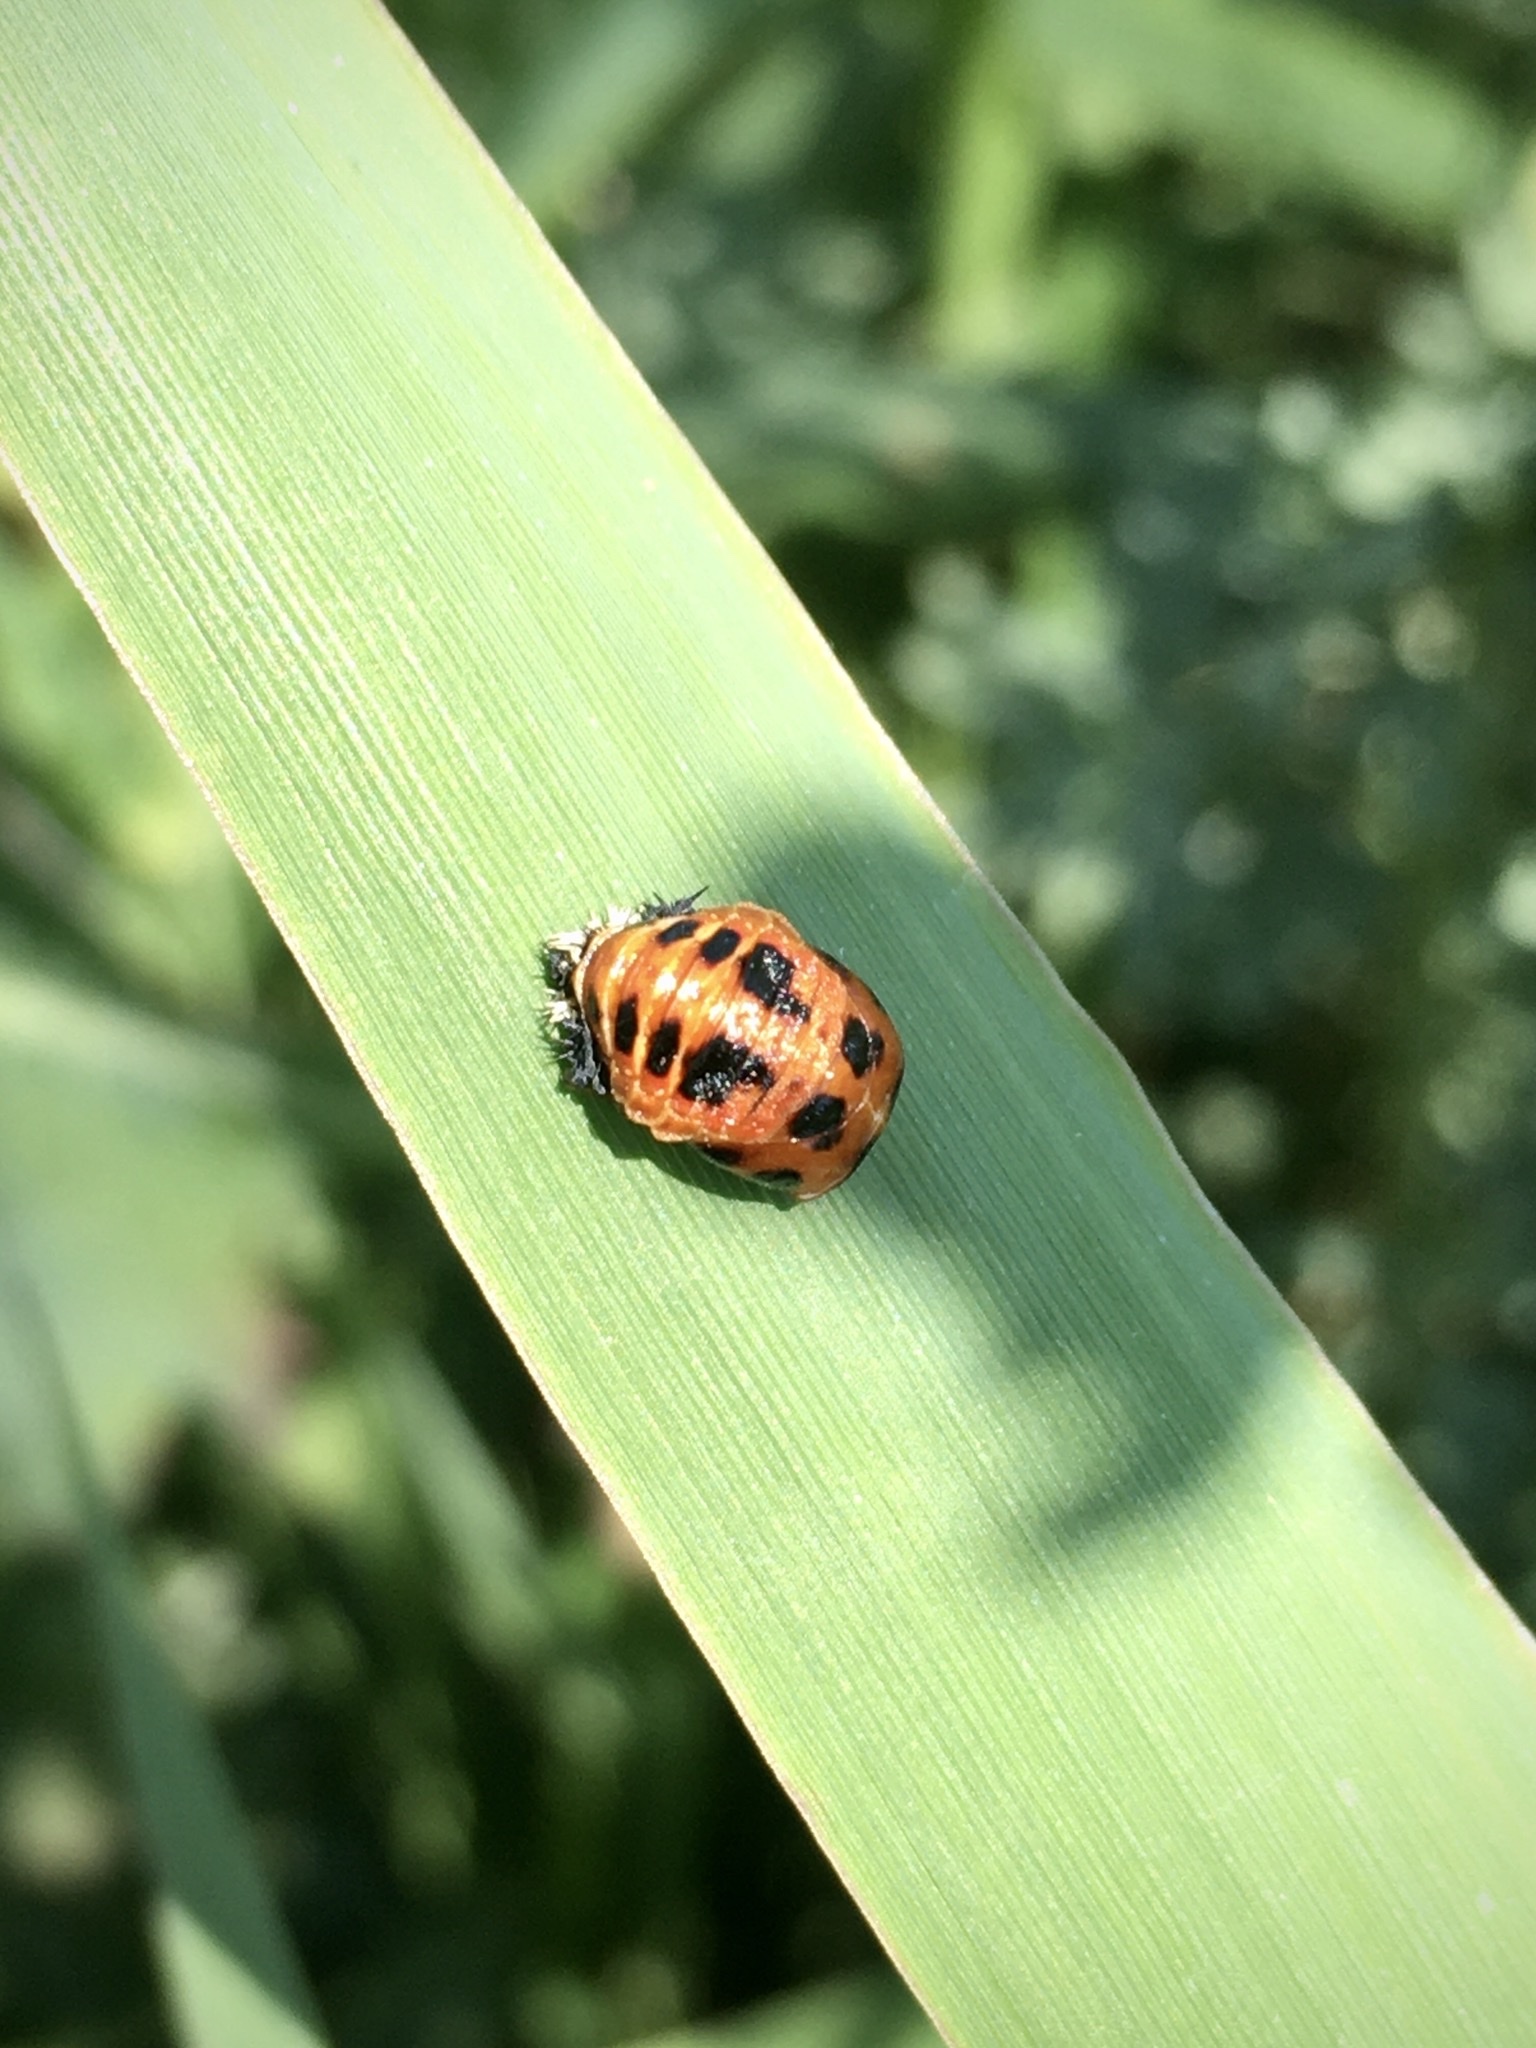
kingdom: Animalia
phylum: Arthropoda
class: Insecta
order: Coleoptera
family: Coccinellidae
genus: Harmonia
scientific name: Harmonia axyridis
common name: Harlequin ladybird
